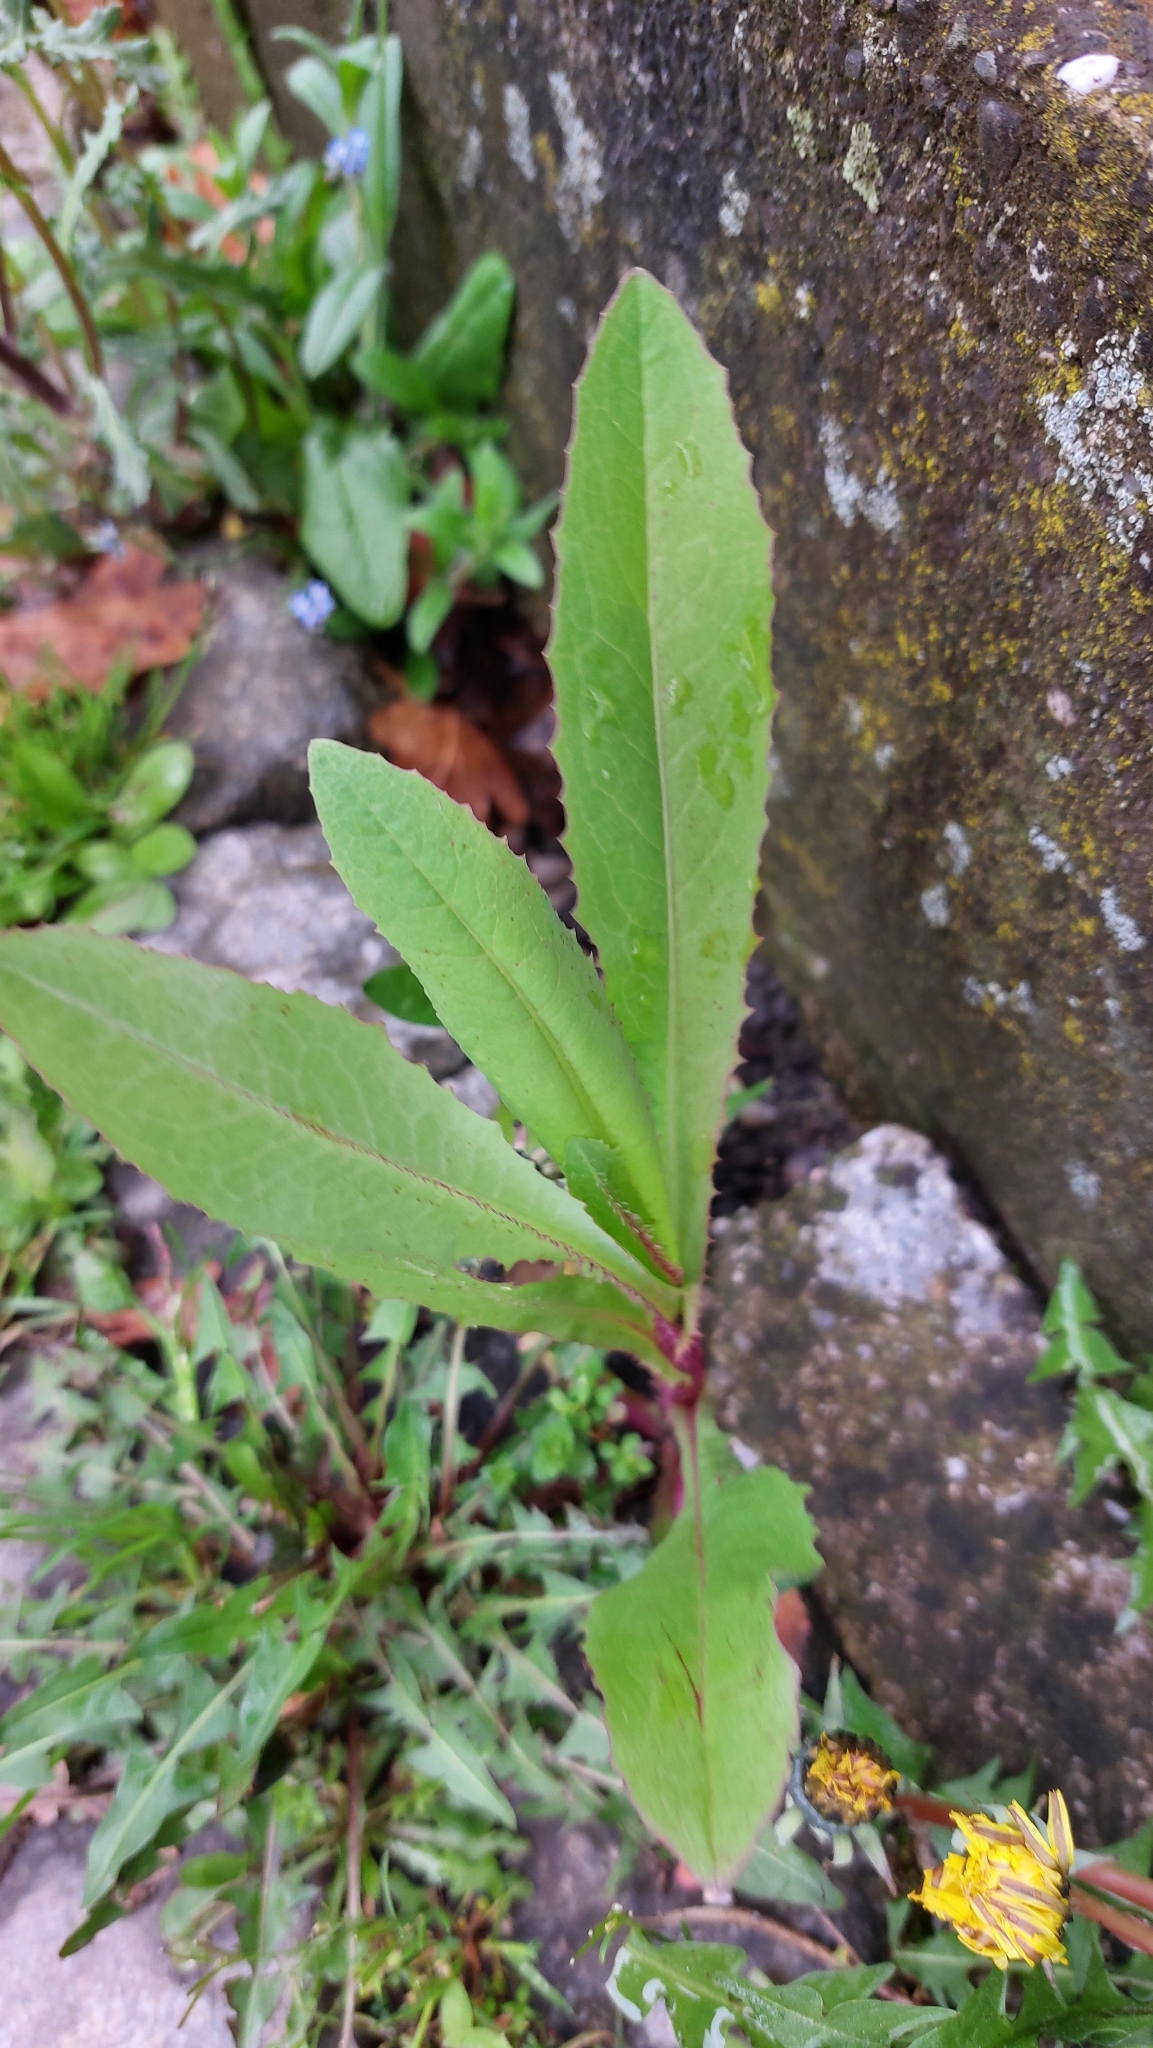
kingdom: Plantae
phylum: Tracheophyta
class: Magnoliopsida
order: Asterales
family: Asteraceae
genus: Lactuca
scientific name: Lactuca serriola
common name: Prickly lettuce
